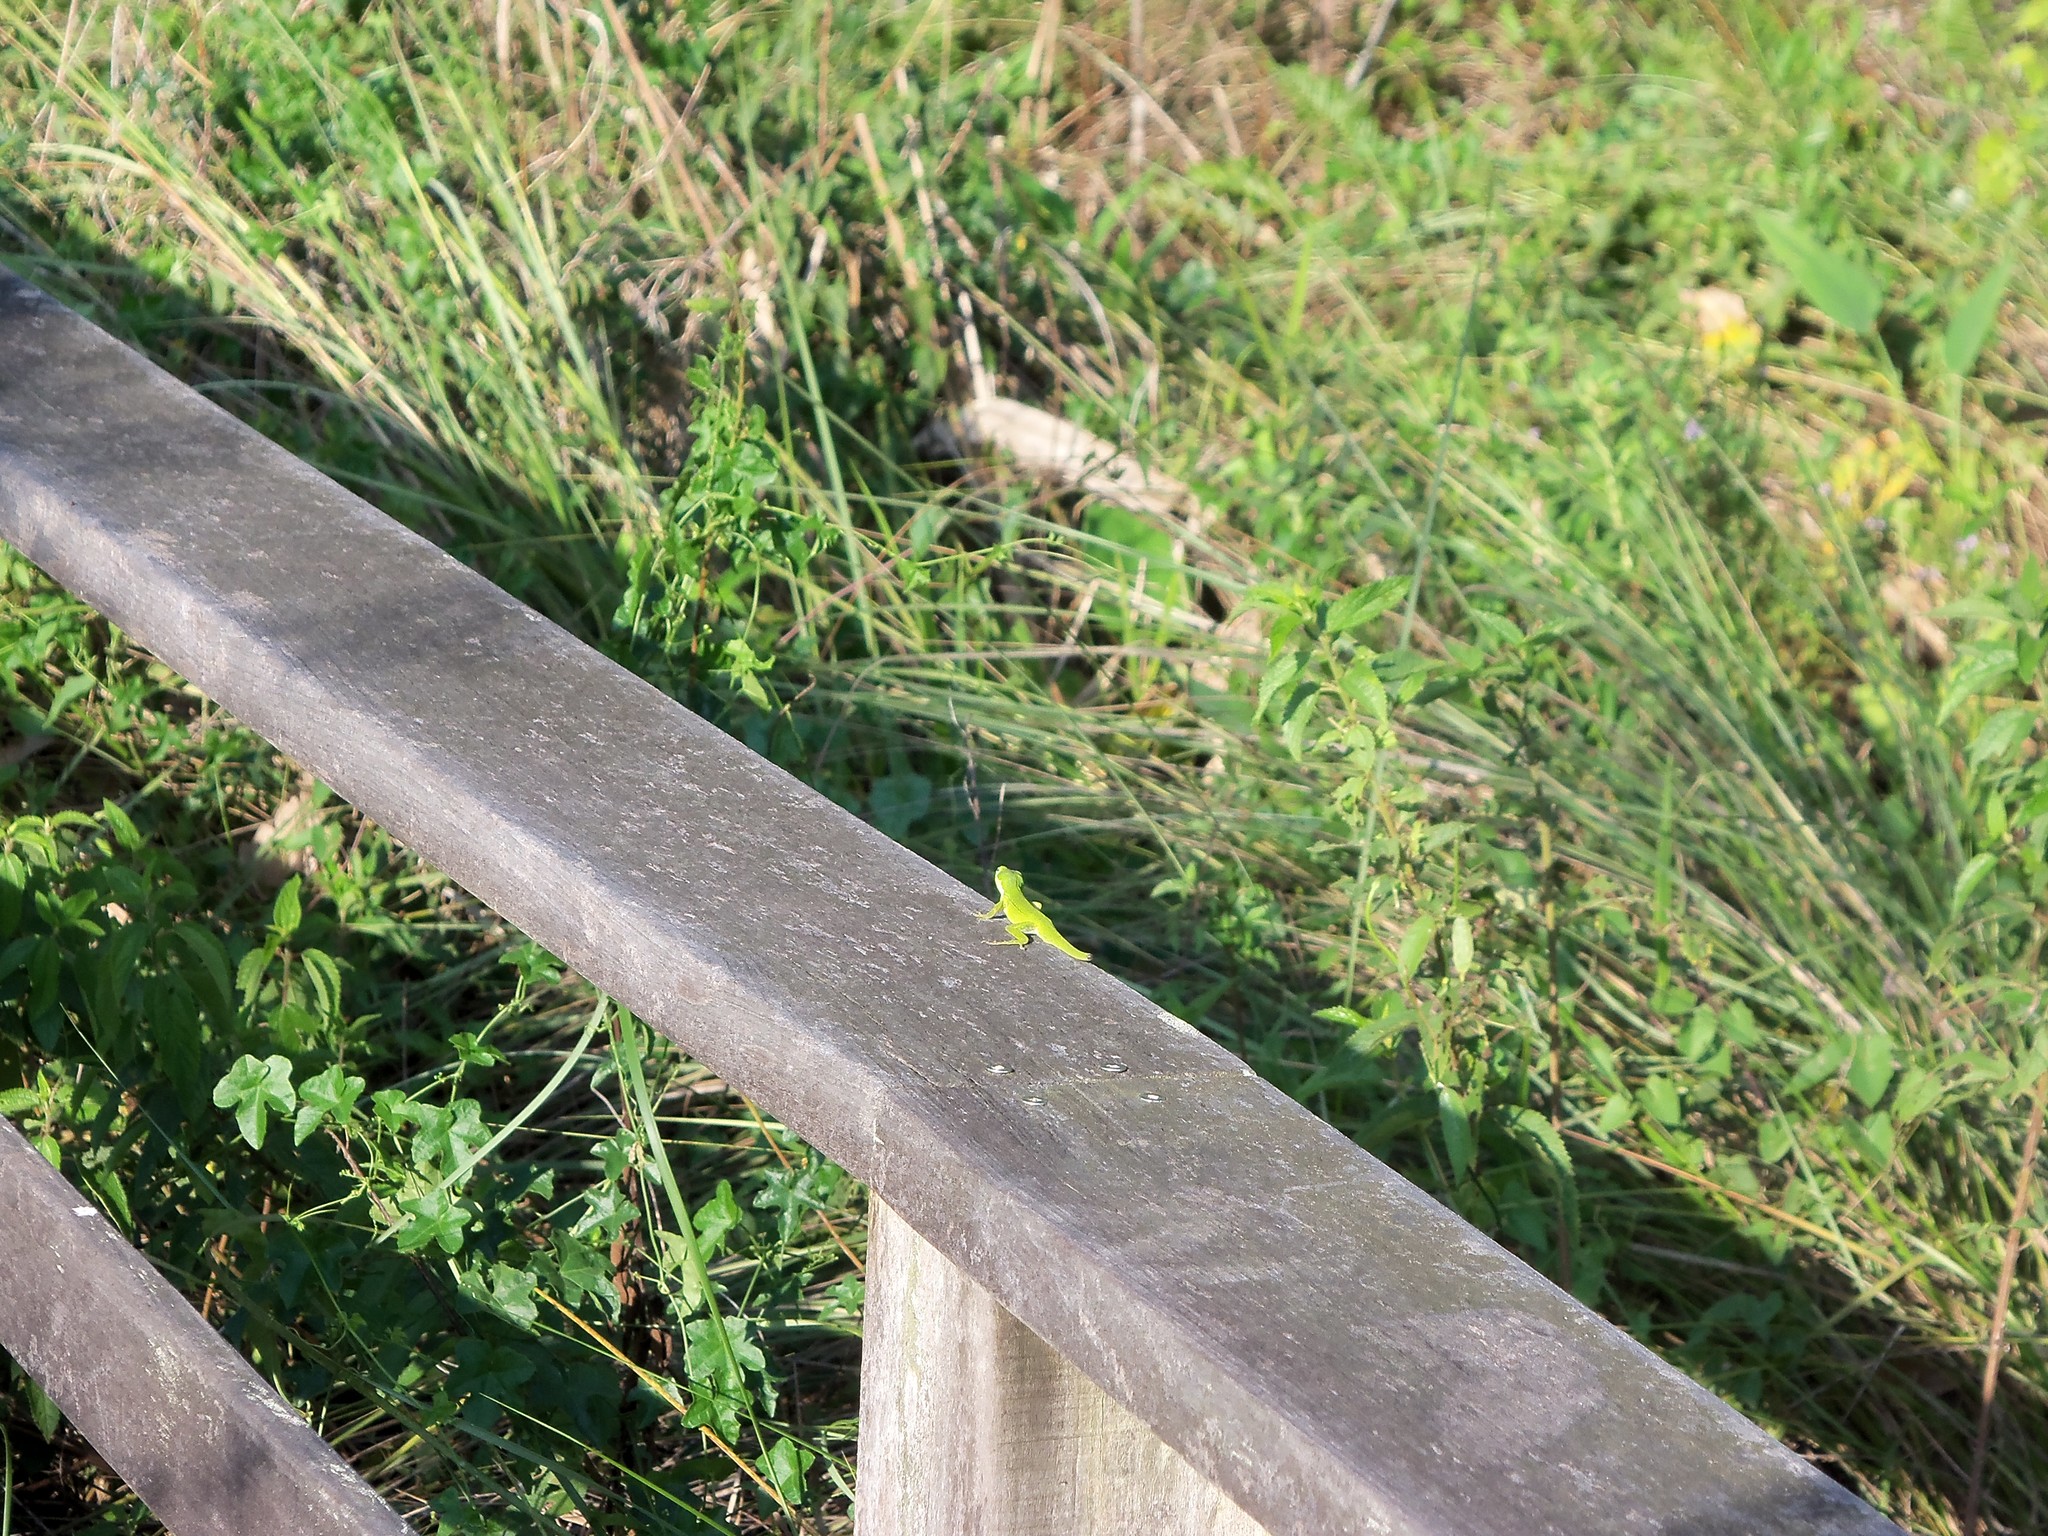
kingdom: Animalia
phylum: Chordata
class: Squamata
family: Dactyloidae
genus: Anolis
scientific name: Anolis carolinensis
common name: Green anole
